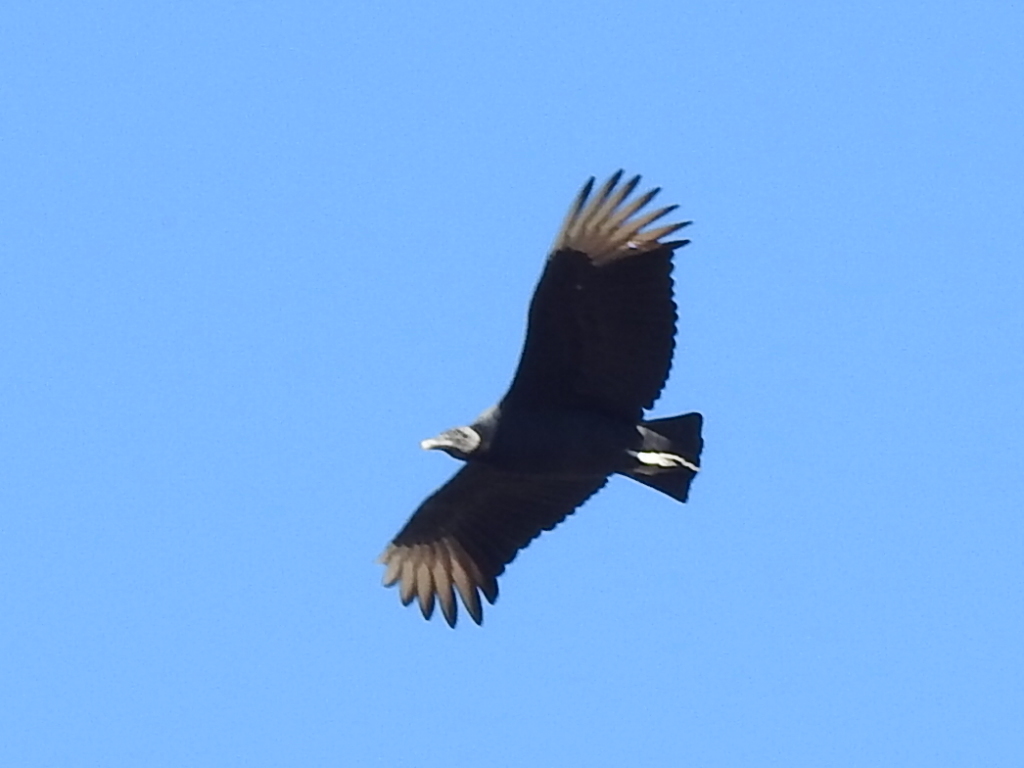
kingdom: Animalia
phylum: Chordata
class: Aves
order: Accipitriformes
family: Cathartidae
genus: Coragyps
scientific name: Coragyps atratus
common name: Black vulture
